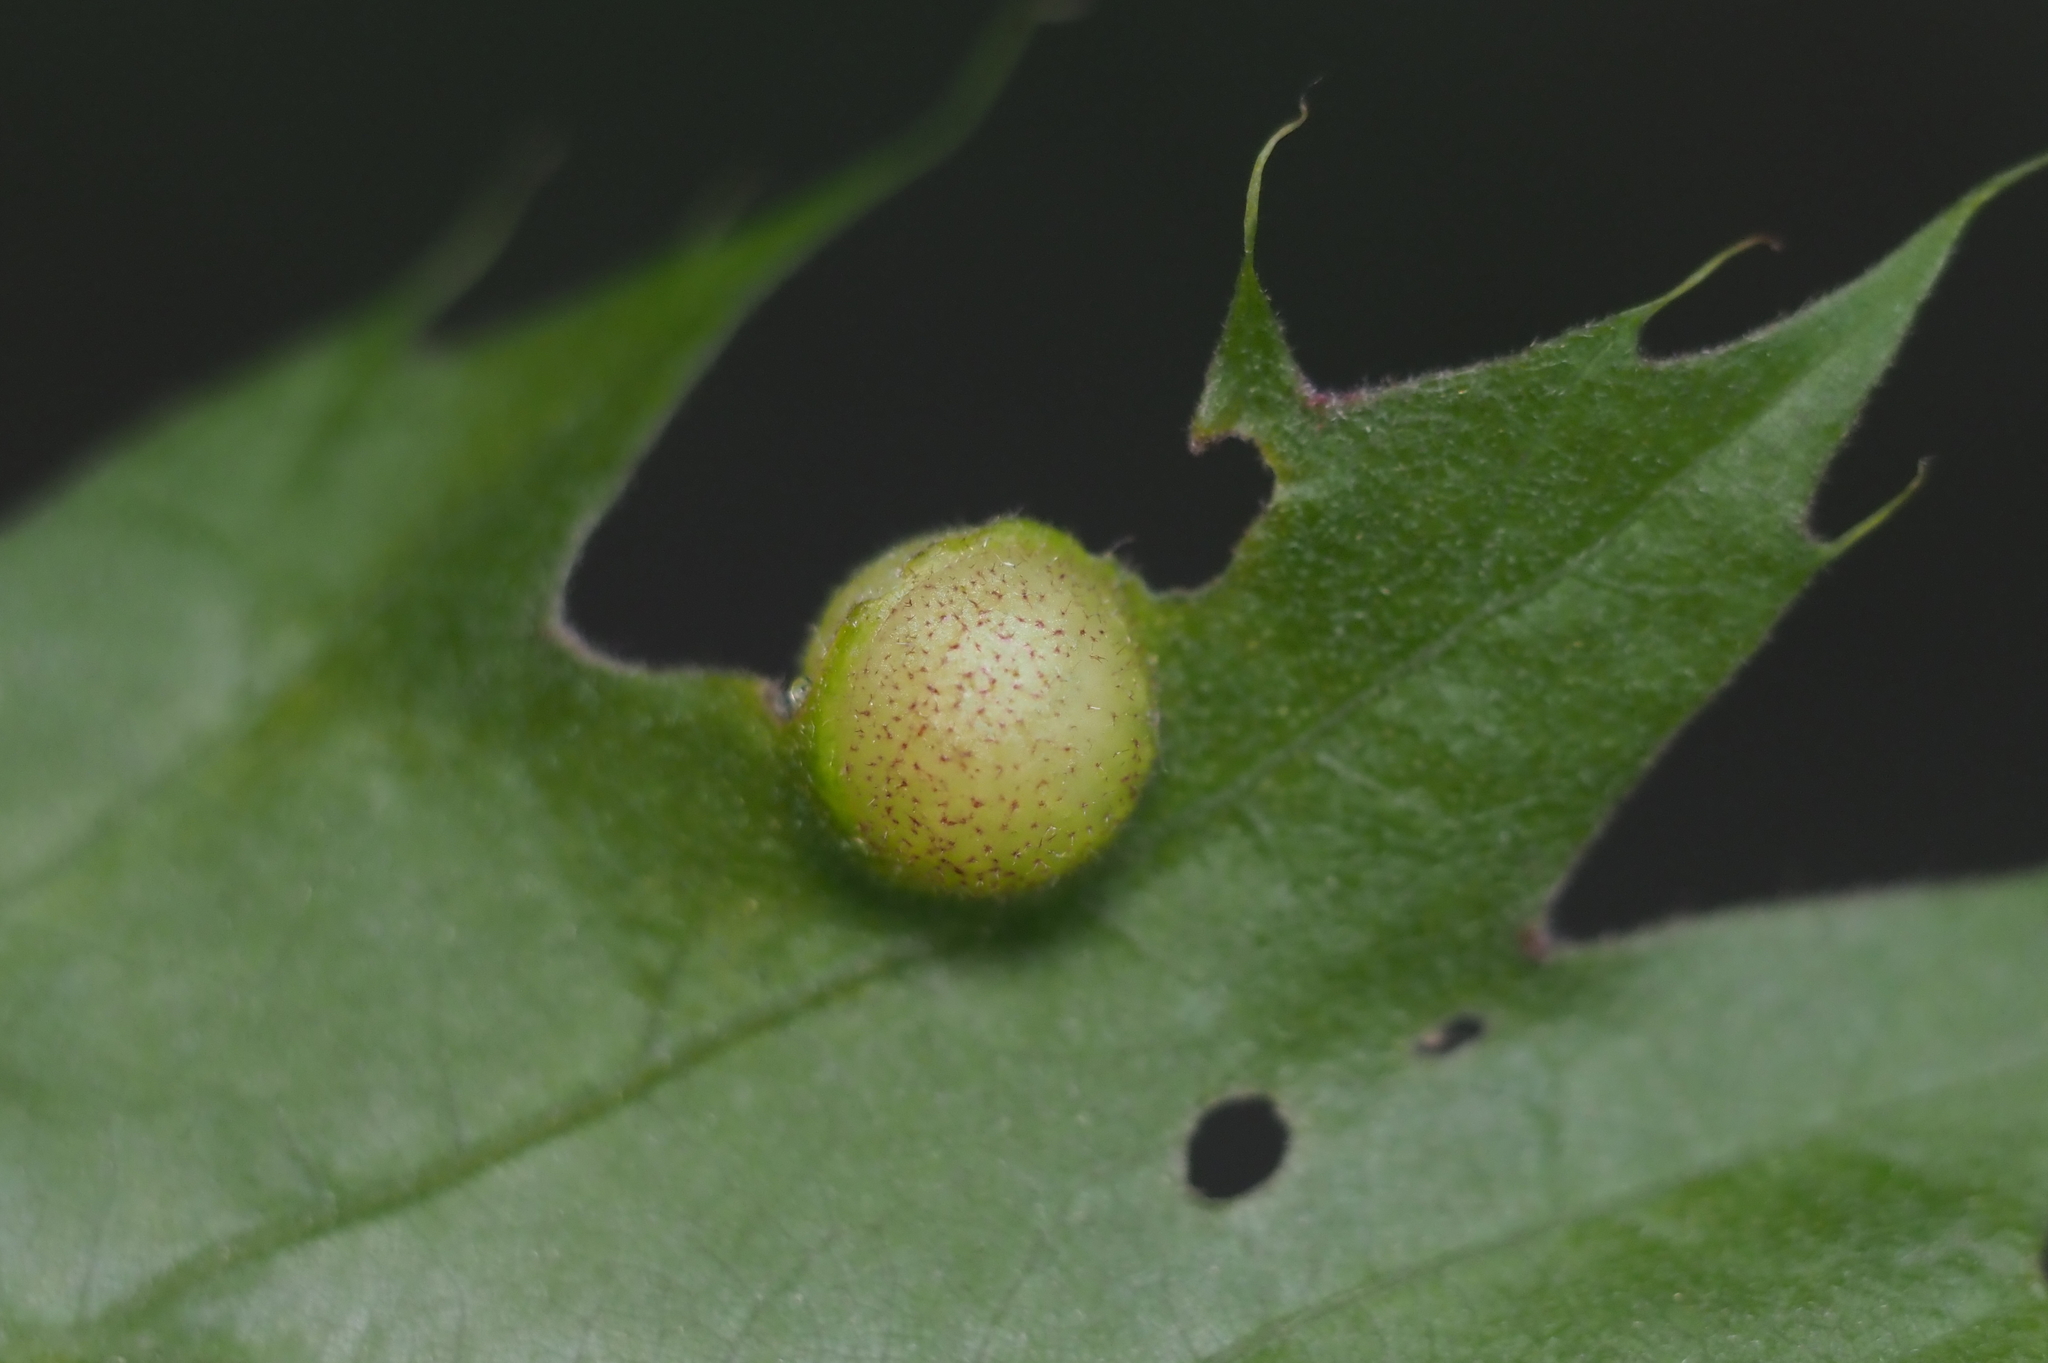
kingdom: Animalia
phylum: Arthropoda
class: Insecta
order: Hymenoptera
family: Cynipidae
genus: Amphibolips
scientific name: Amphibolips
